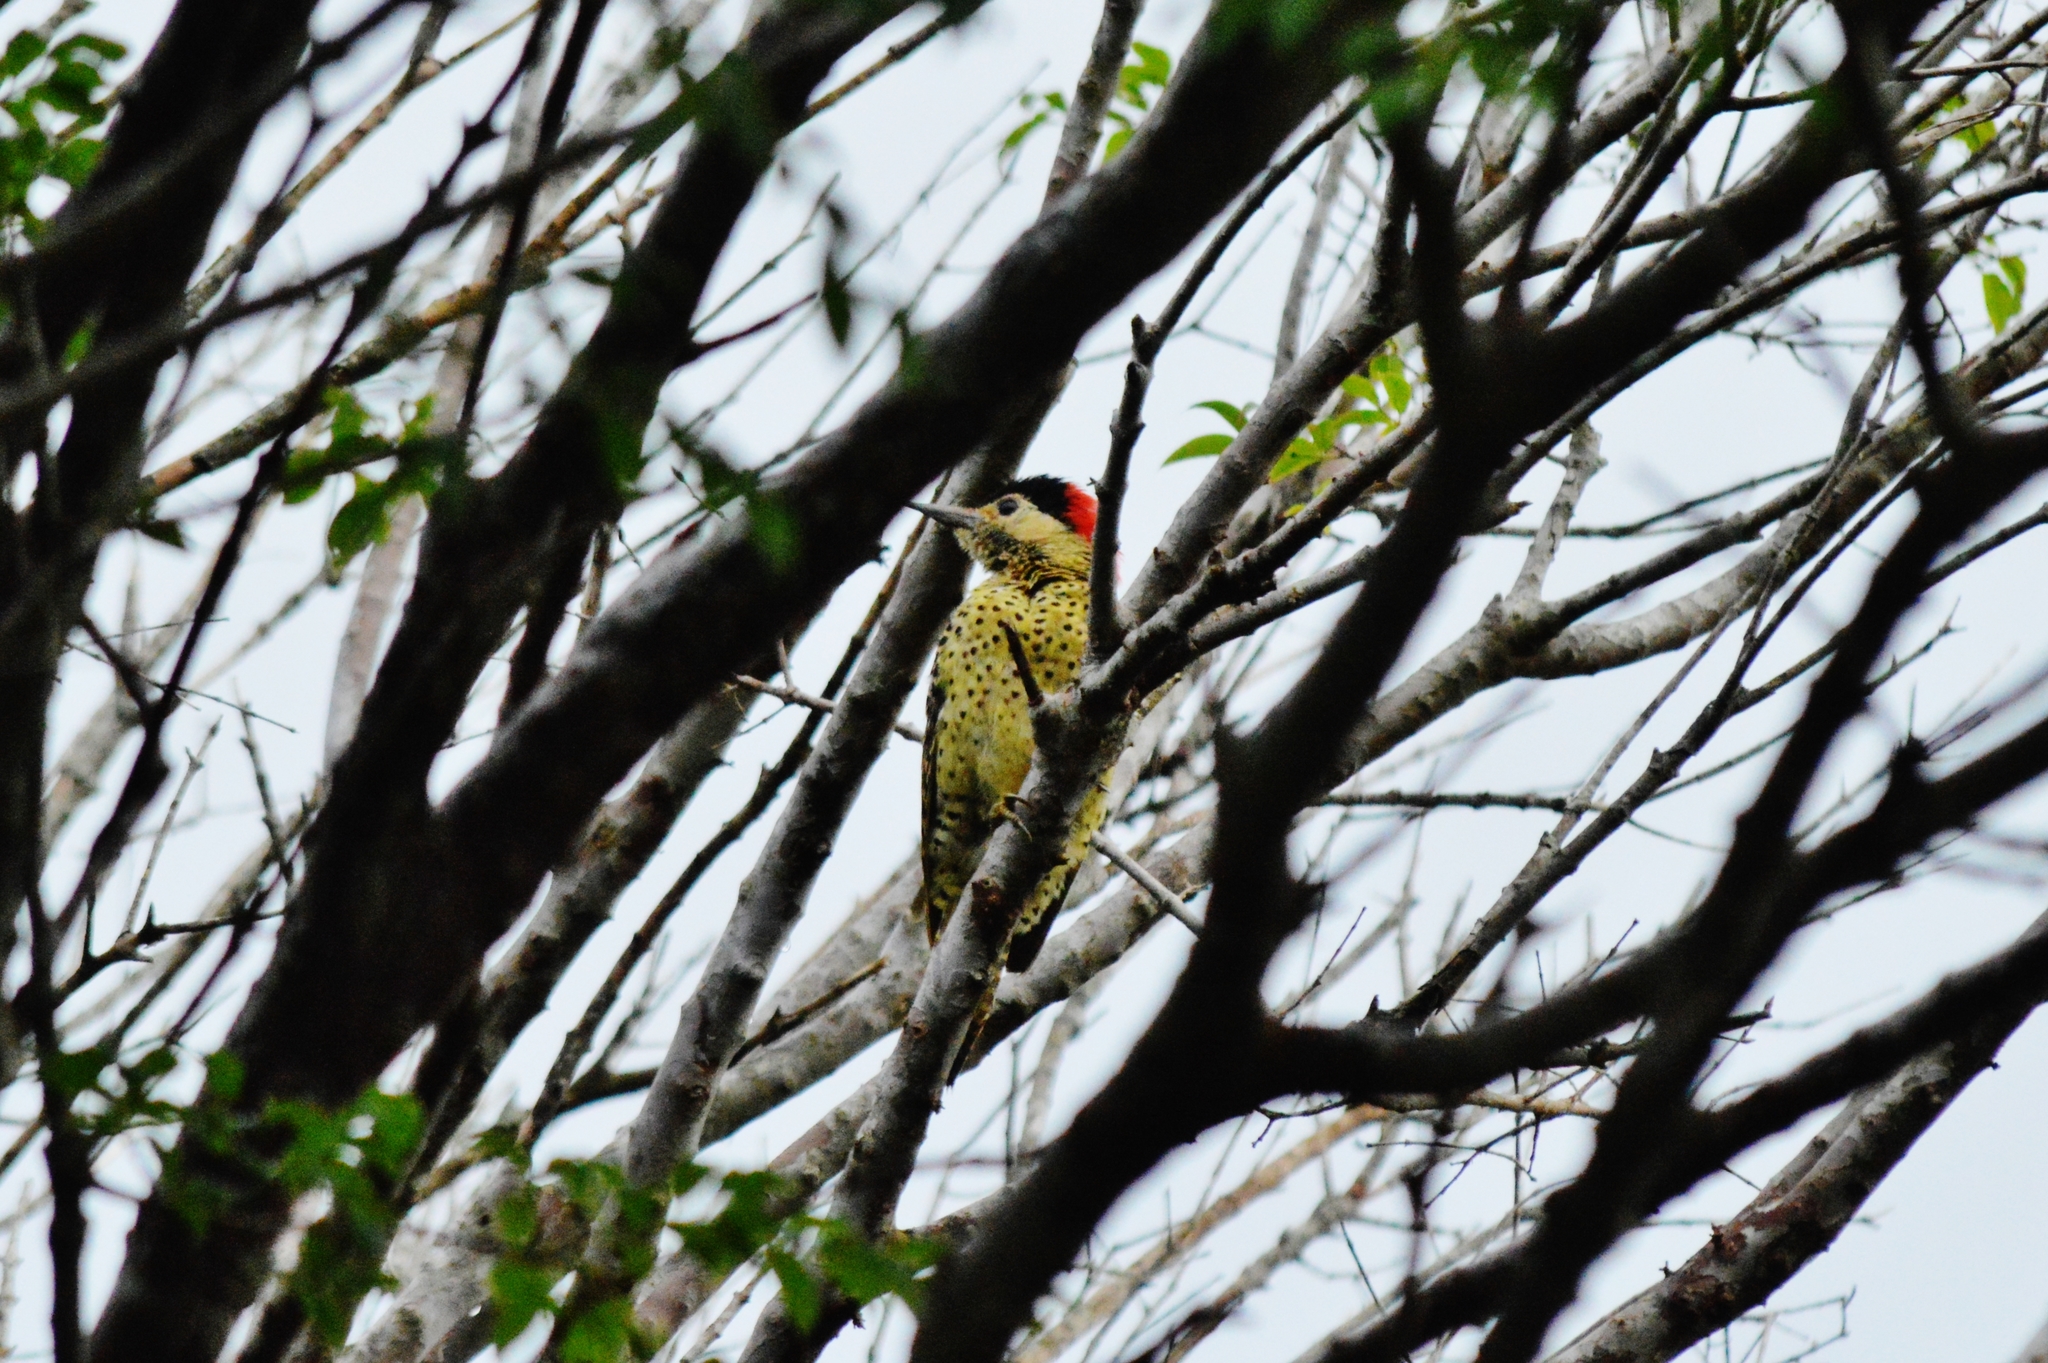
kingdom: Animalia
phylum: Chordata
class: Aves
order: Piciformes
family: Picidae
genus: Colaptes
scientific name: Colaptes melanochloros
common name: Green-barred woodpecker
